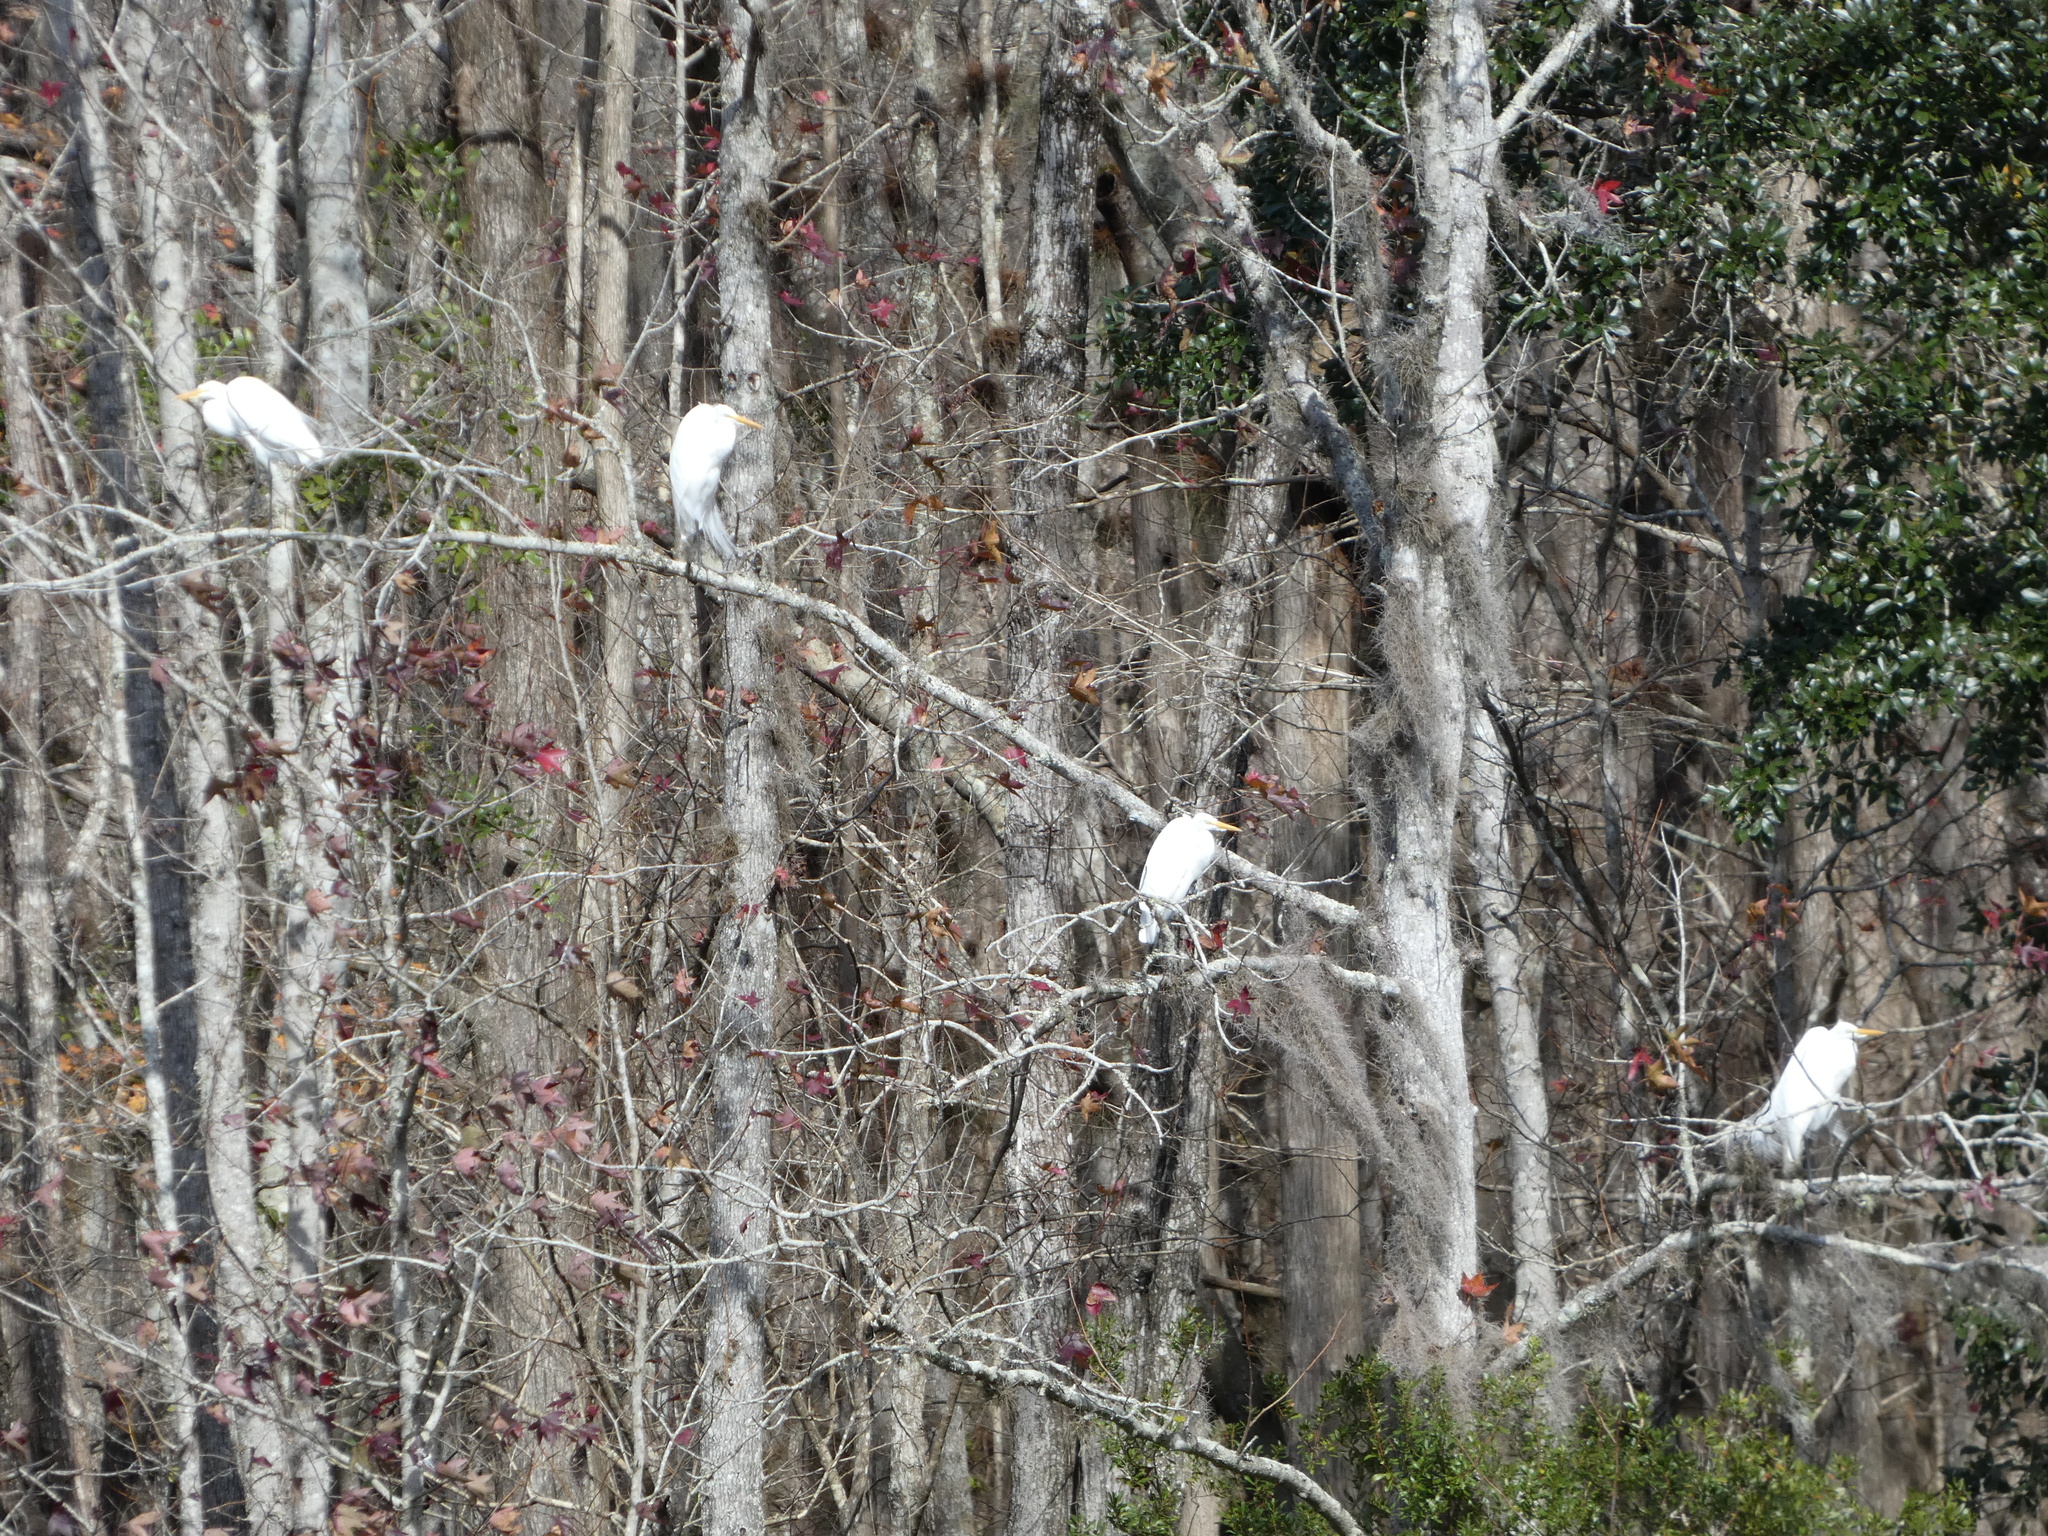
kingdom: Animalia
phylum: Chordata
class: Aves
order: Pelecaniformes
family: Ardeidae
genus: Ardea
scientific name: Ardea alba
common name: Great egret
